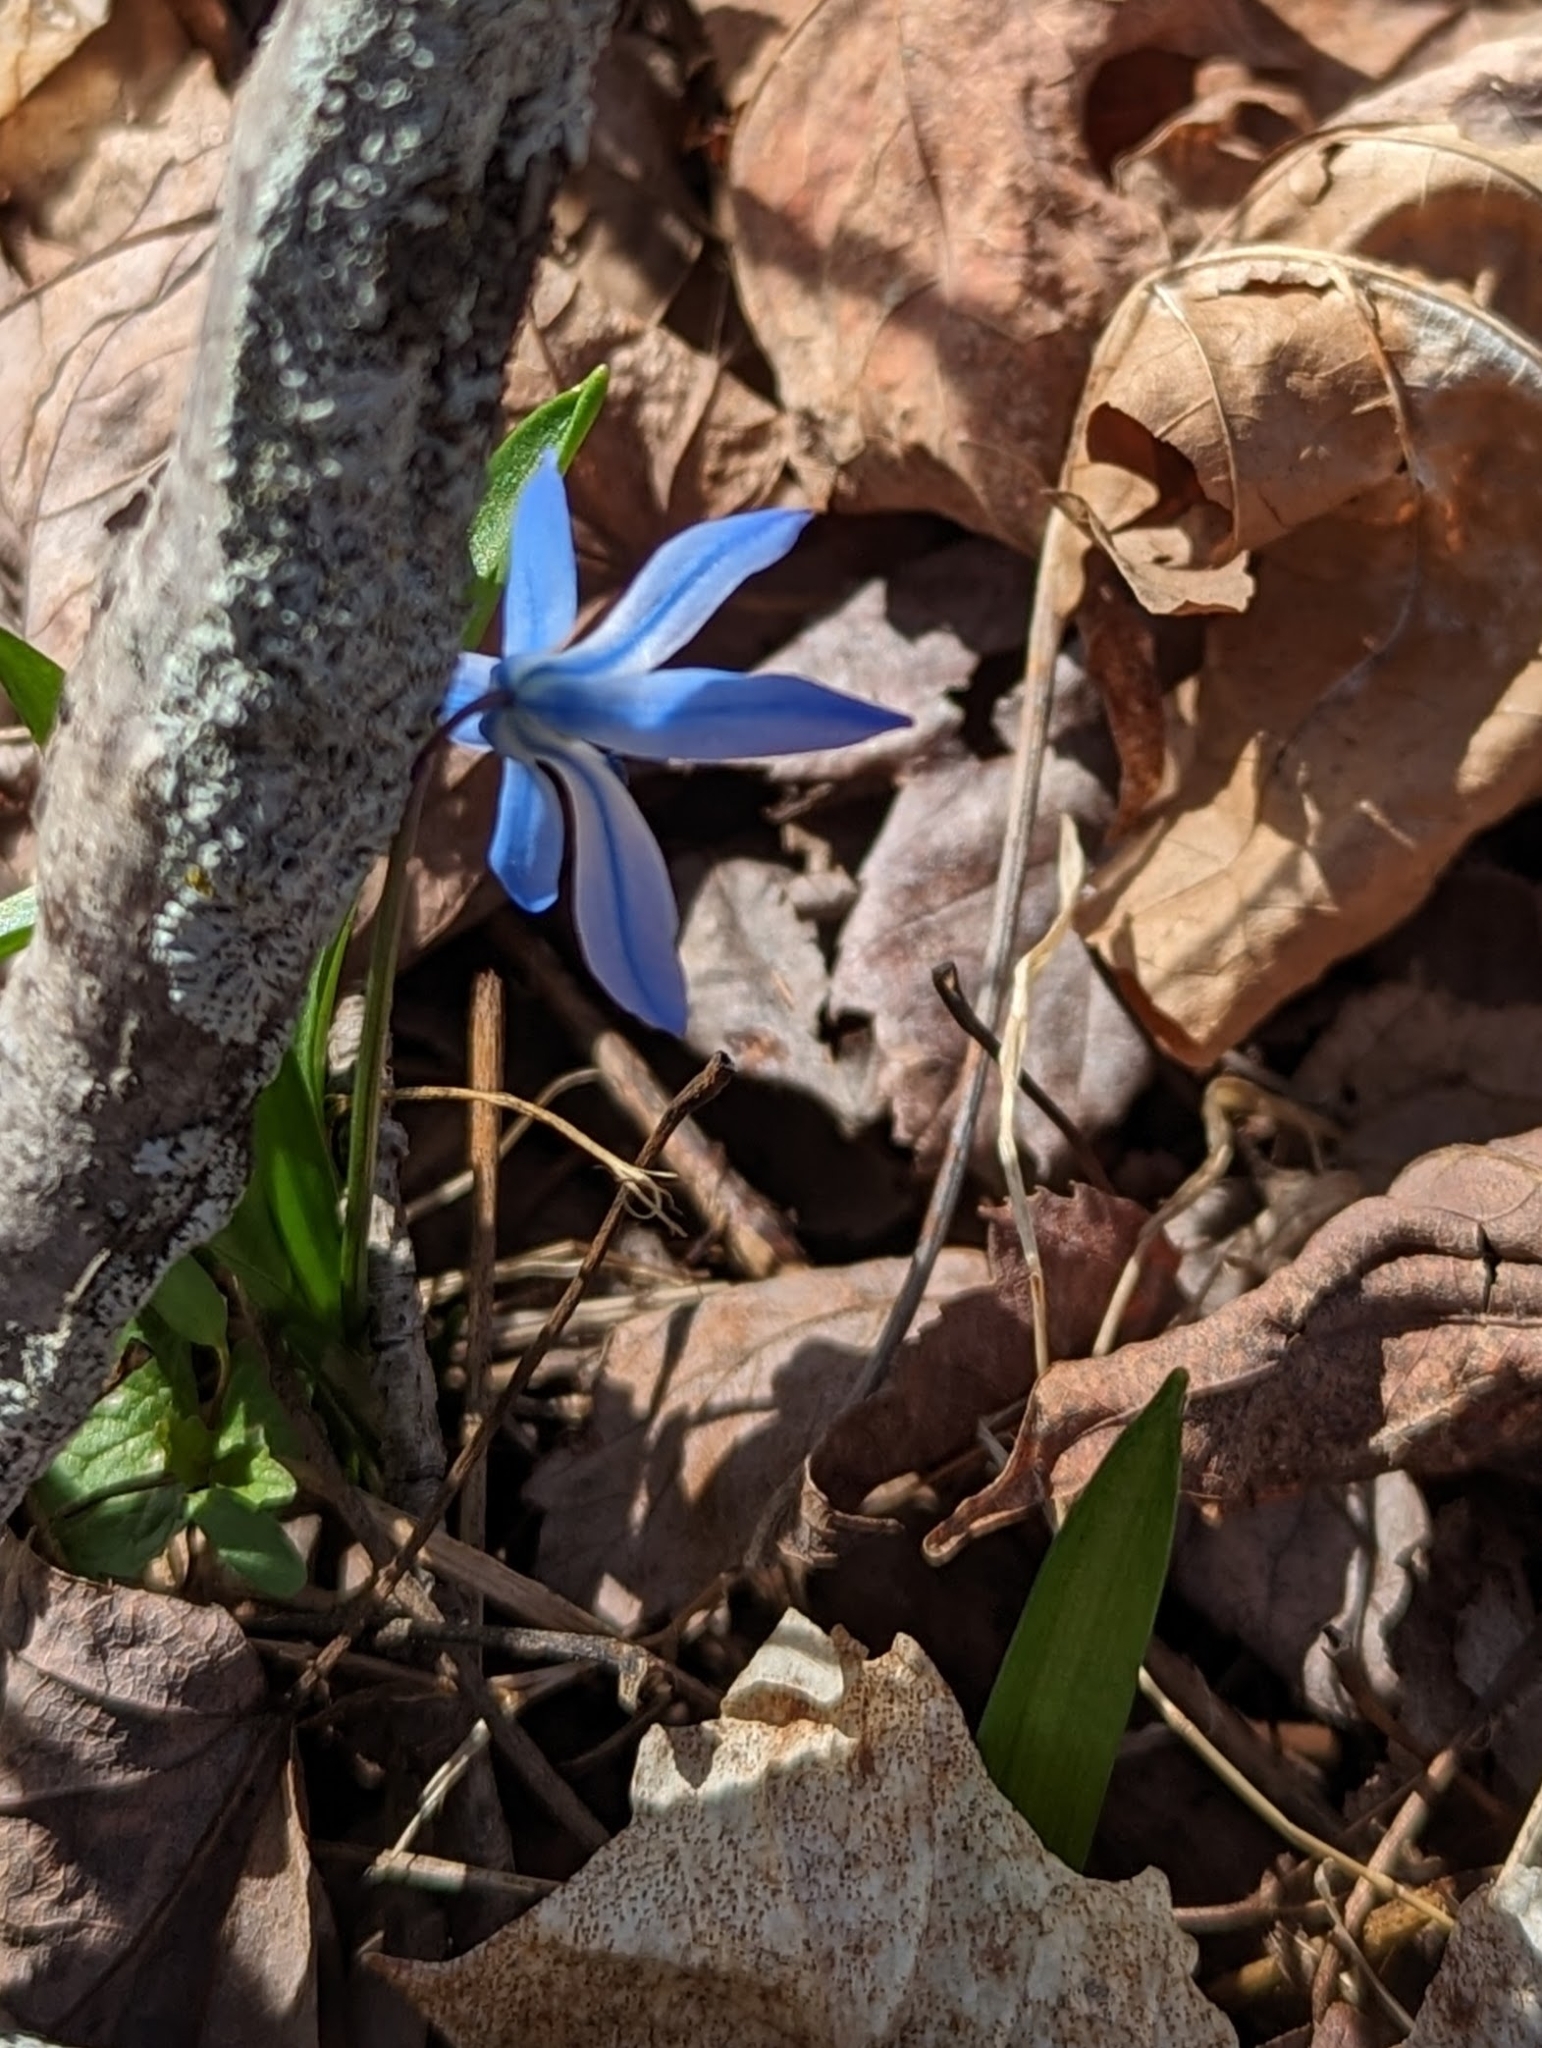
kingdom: Plantae
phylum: Tracheophyta
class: Liliopsida
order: Asparagales
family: Asparagaceae
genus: Scilla
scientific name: Scilla siberica
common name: Siberian squill
